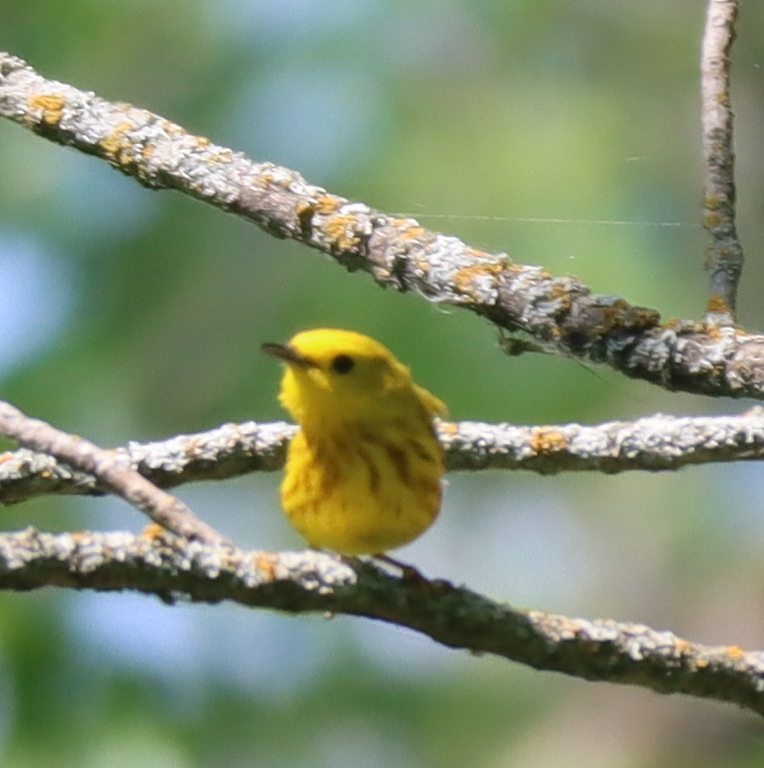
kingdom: Animalia
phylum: Chordata
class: Aves
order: Passeriformes
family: Parulidae
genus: Setophaga
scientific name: Setophaga petechia
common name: Yellow warbler
